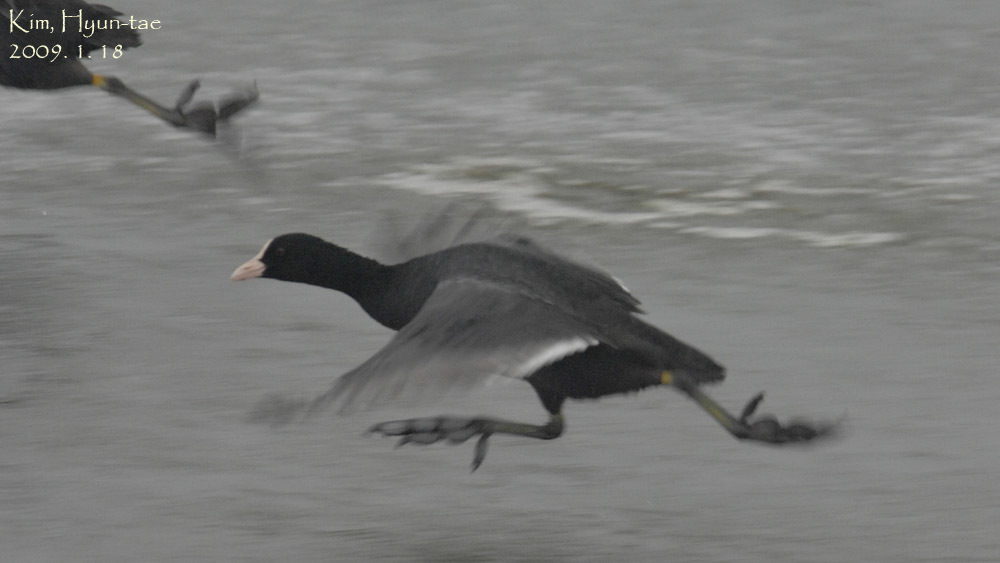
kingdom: Animalia
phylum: Chordata
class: Aves
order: Gruiformes
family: Rallidae
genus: Fulica
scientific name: Fulica atra
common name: Eurasian coot
